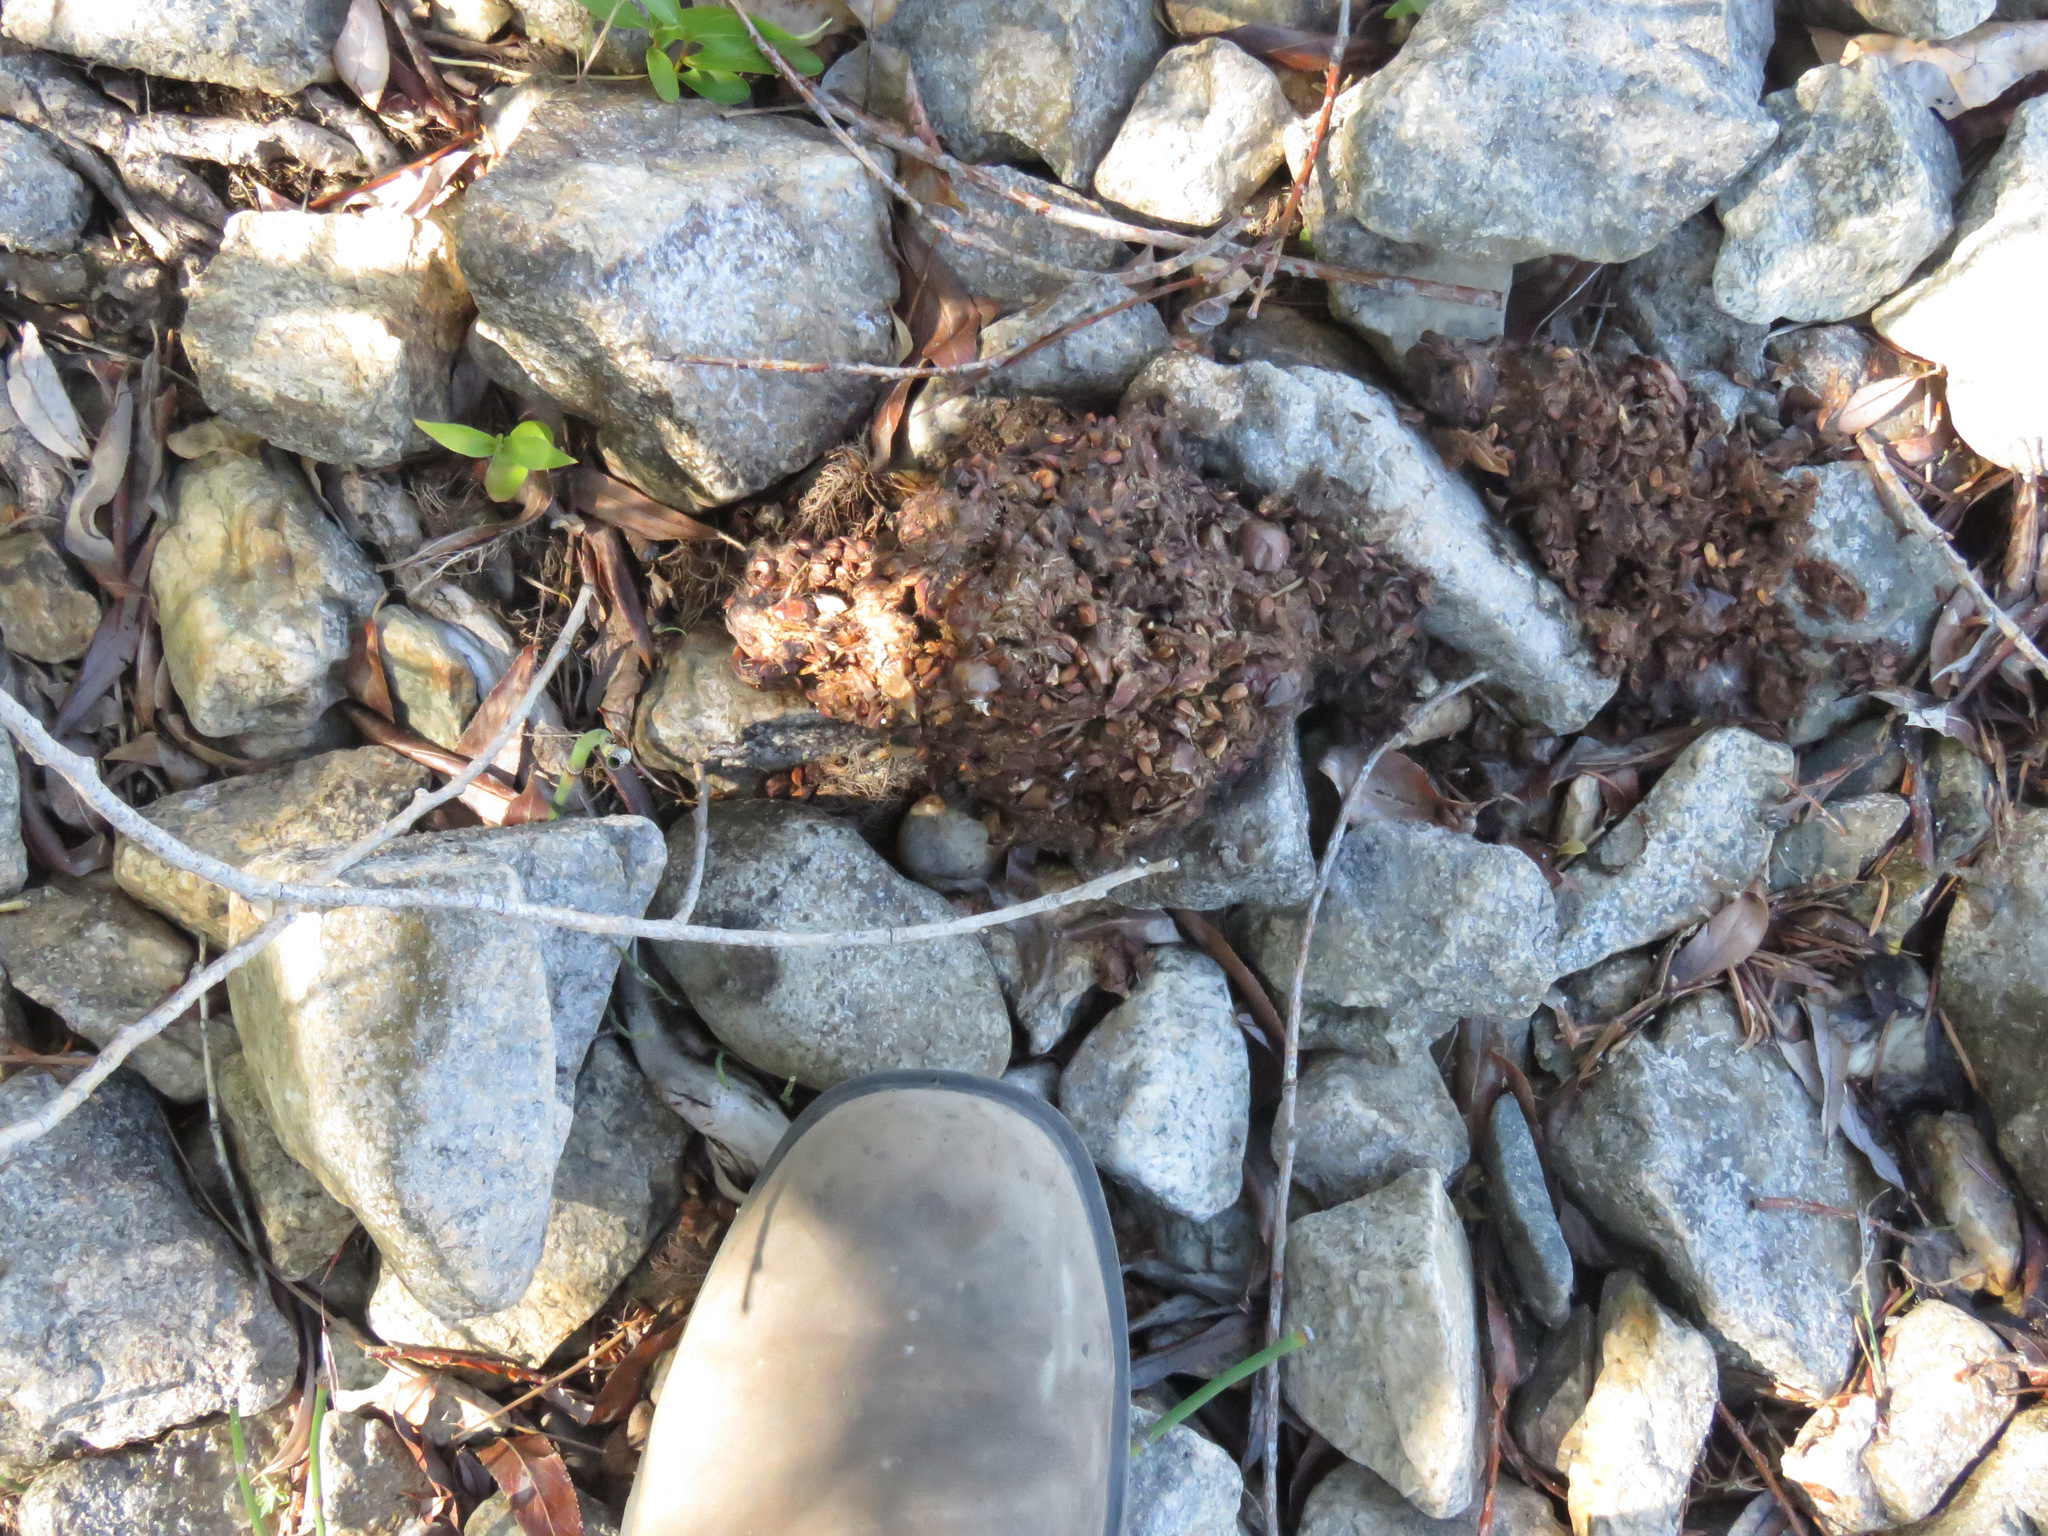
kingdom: Animalia
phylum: Chordata
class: Mammalia
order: Carnivora
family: Ursidae
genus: Ursus
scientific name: Ursus americanus
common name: American black bear
